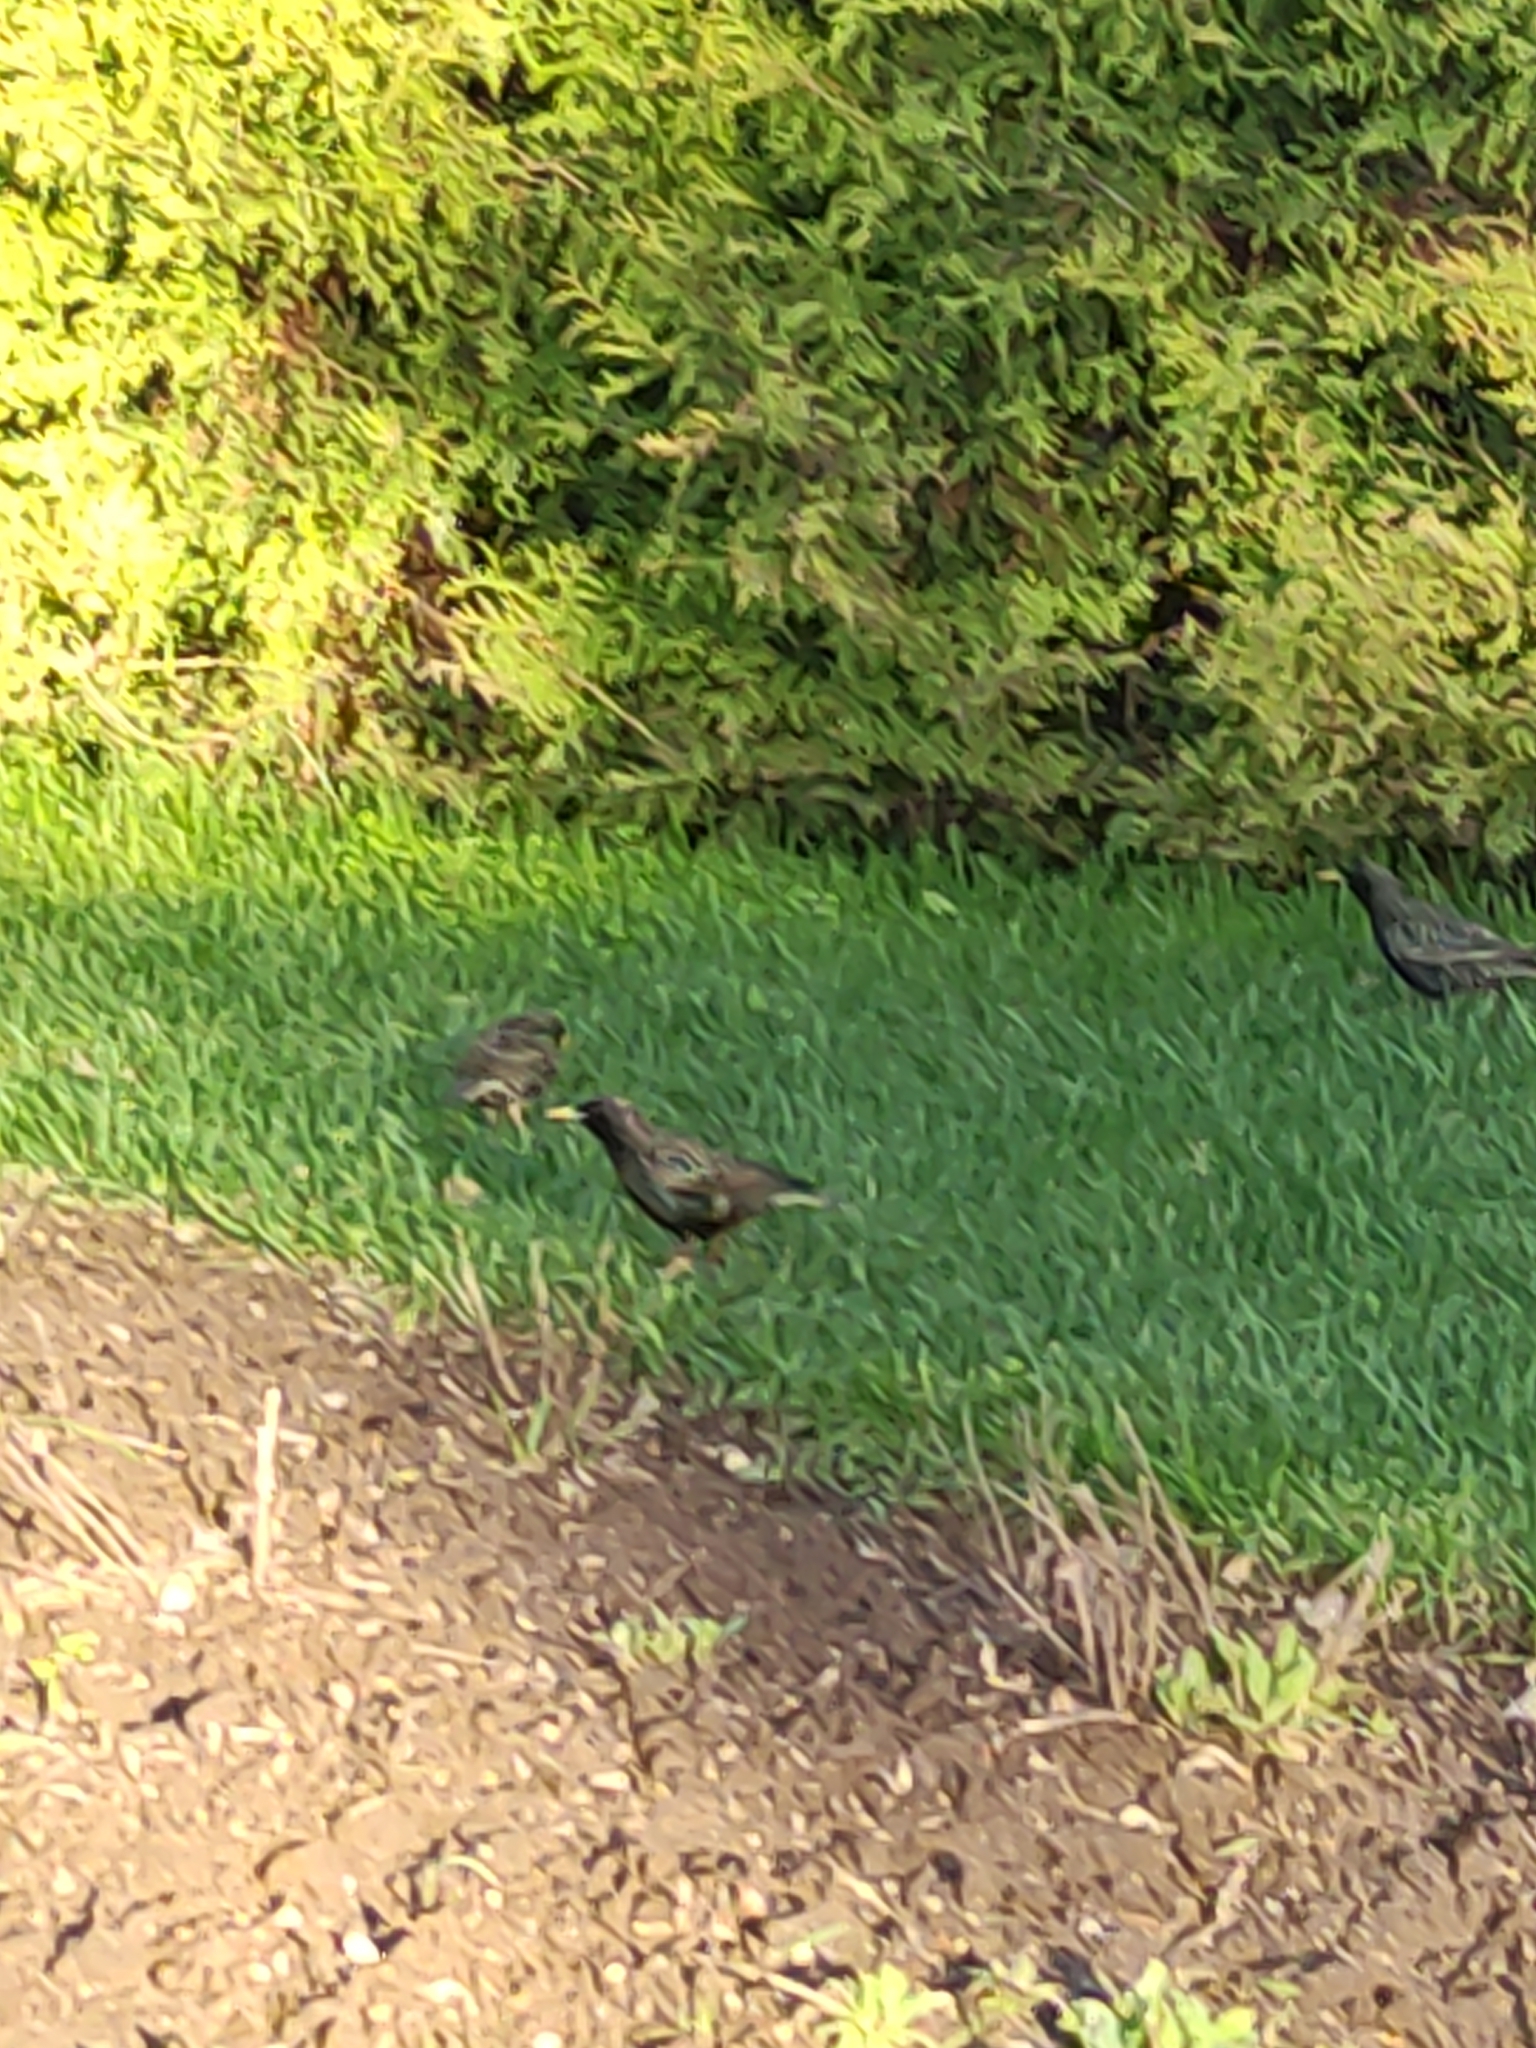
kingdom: Animalia
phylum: Chordata
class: Aves
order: Passeriformes
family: Sturnidae
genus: Sturnus
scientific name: Sturnus vulgaris
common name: Common starling
